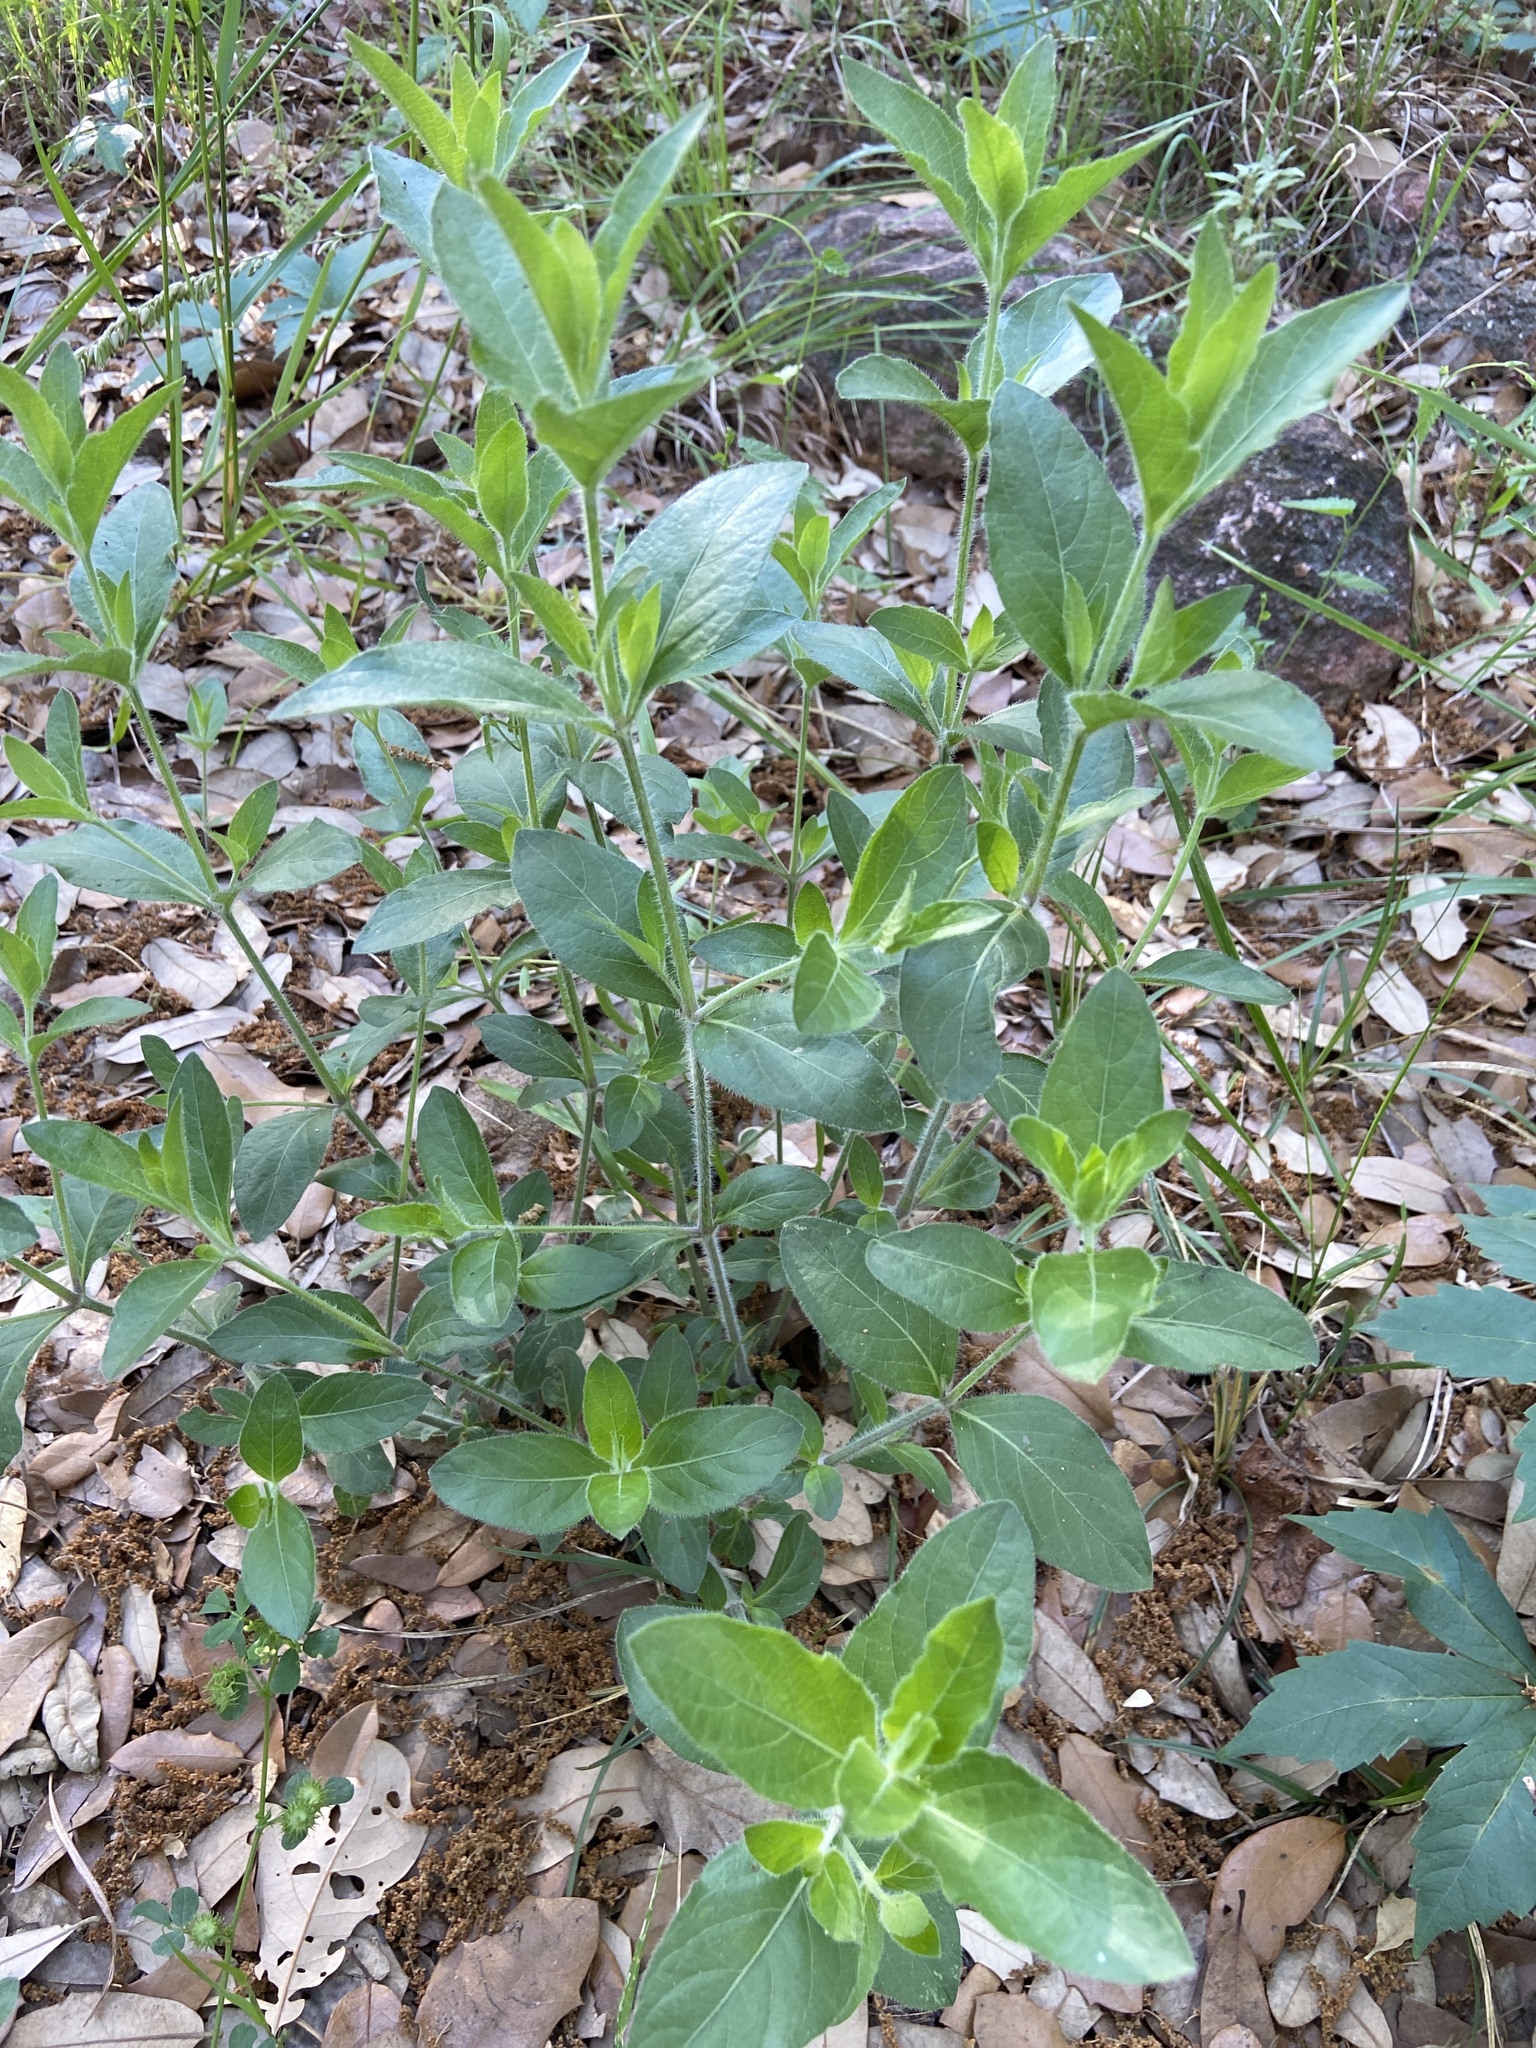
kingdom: Plantae
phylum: Tracheophyta
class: Magnoliopsida
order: Lamiales
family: Acanthaceae
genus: Ruellia
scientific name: Ruellia humilis
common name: Fringe-leaf ruellia
